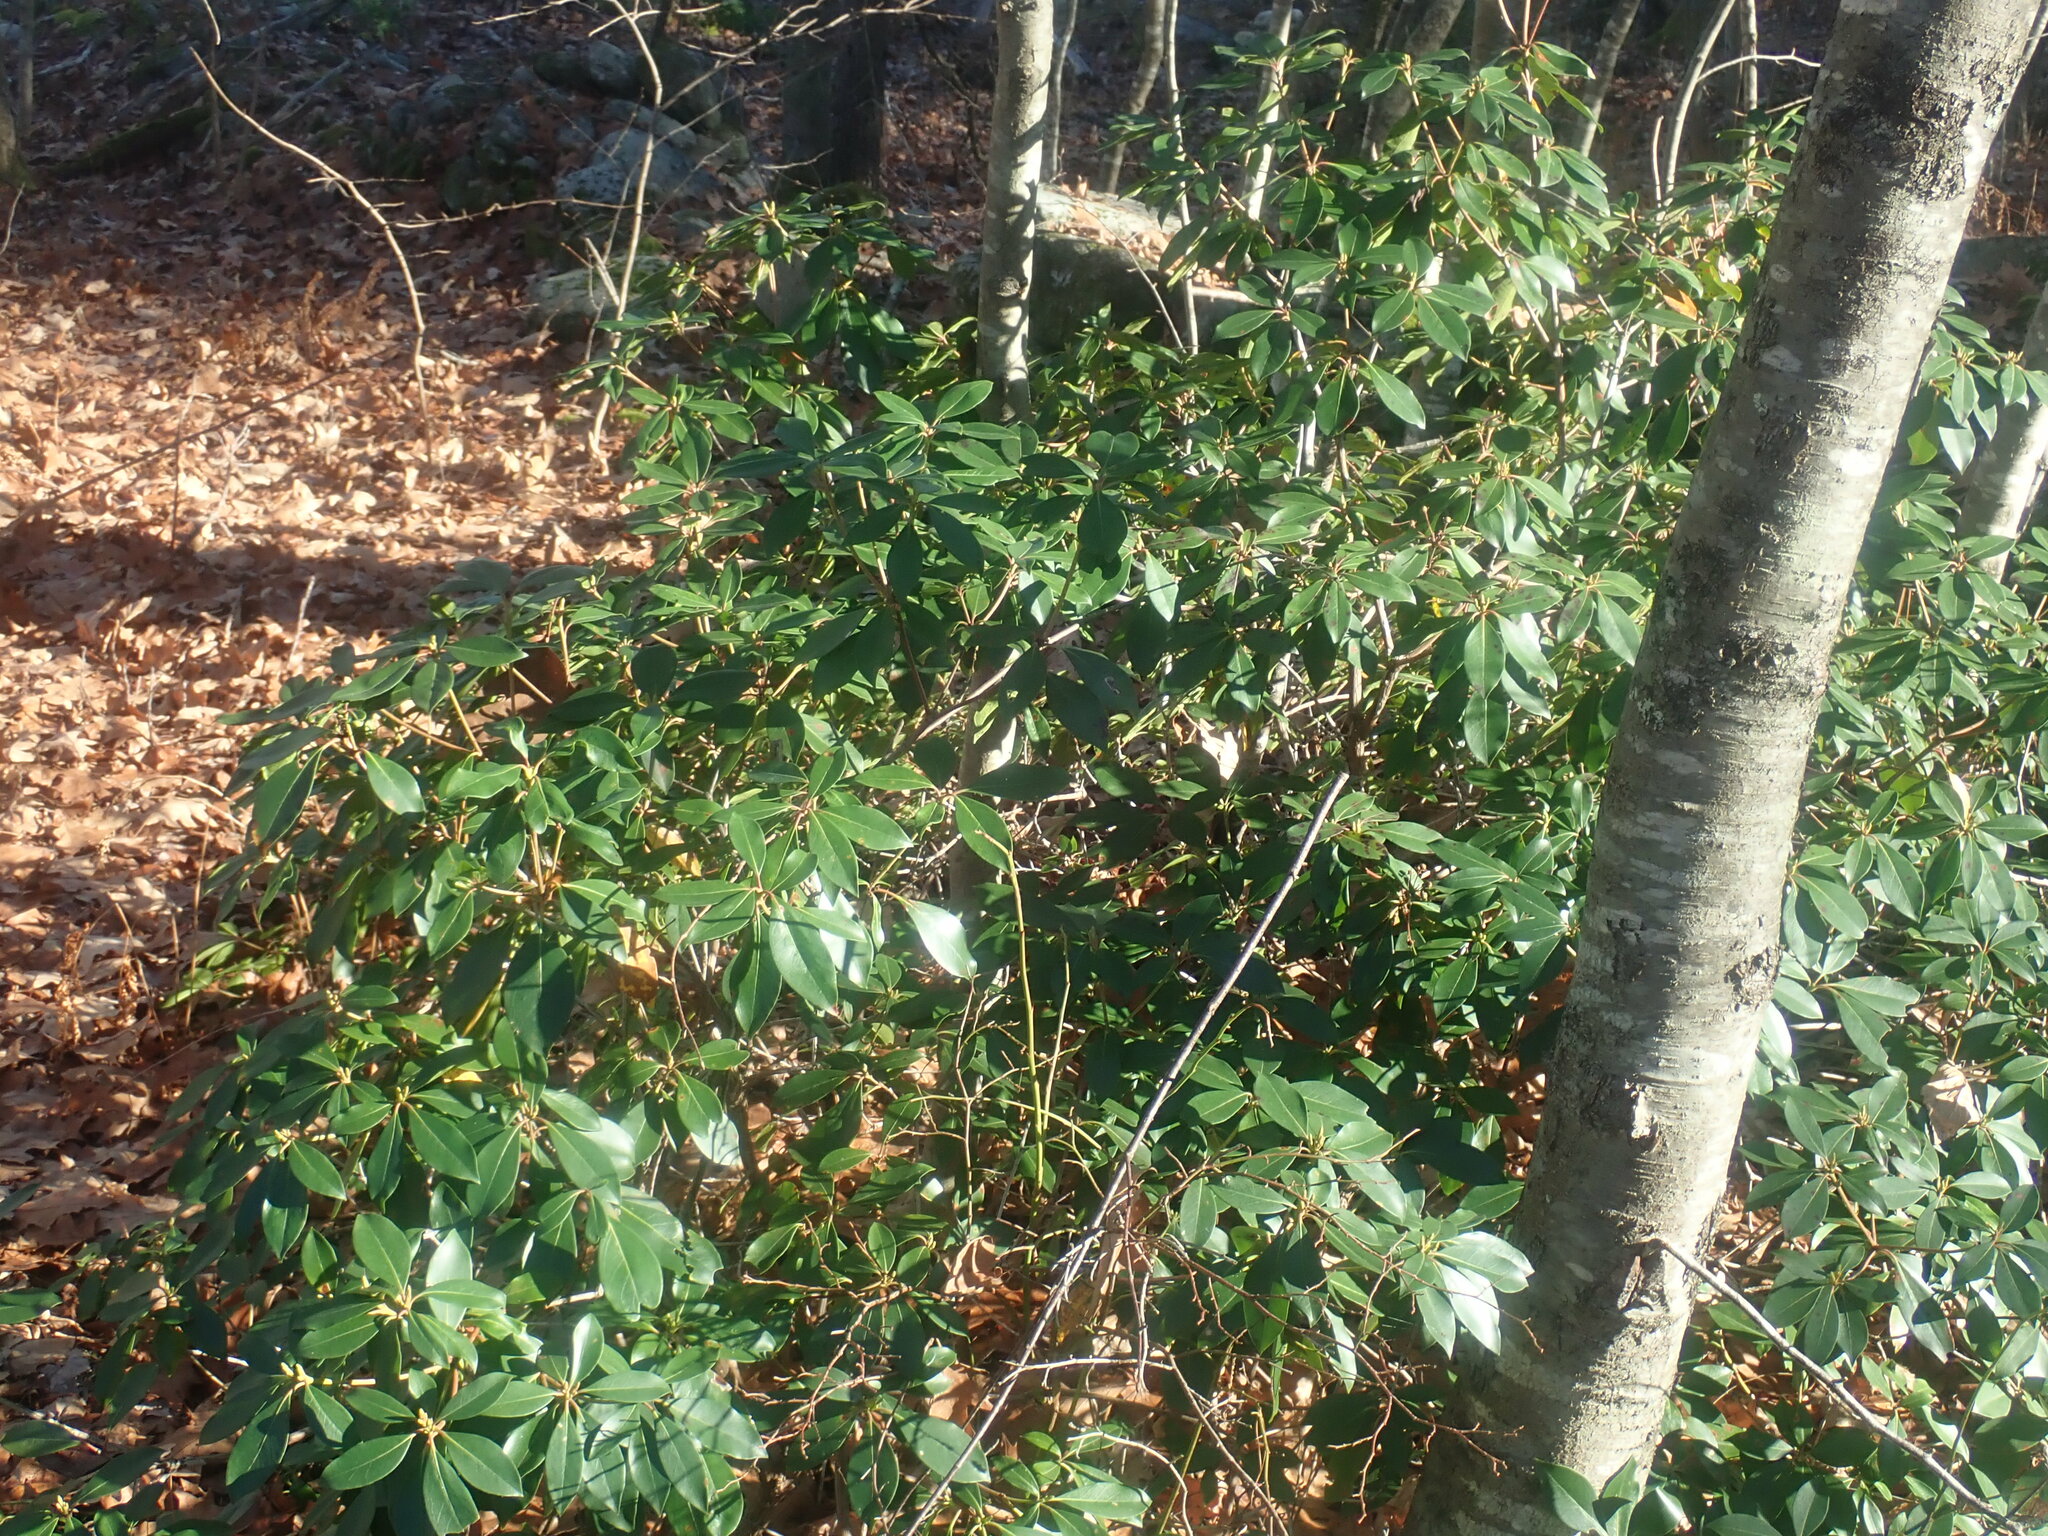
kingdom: Plantae
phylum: Tracheophyta
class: Magnoliopsida
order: Ericales
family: Ericaceae
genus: Kalmia
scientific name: Kalmia latifolia
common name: Mountain-laurel
